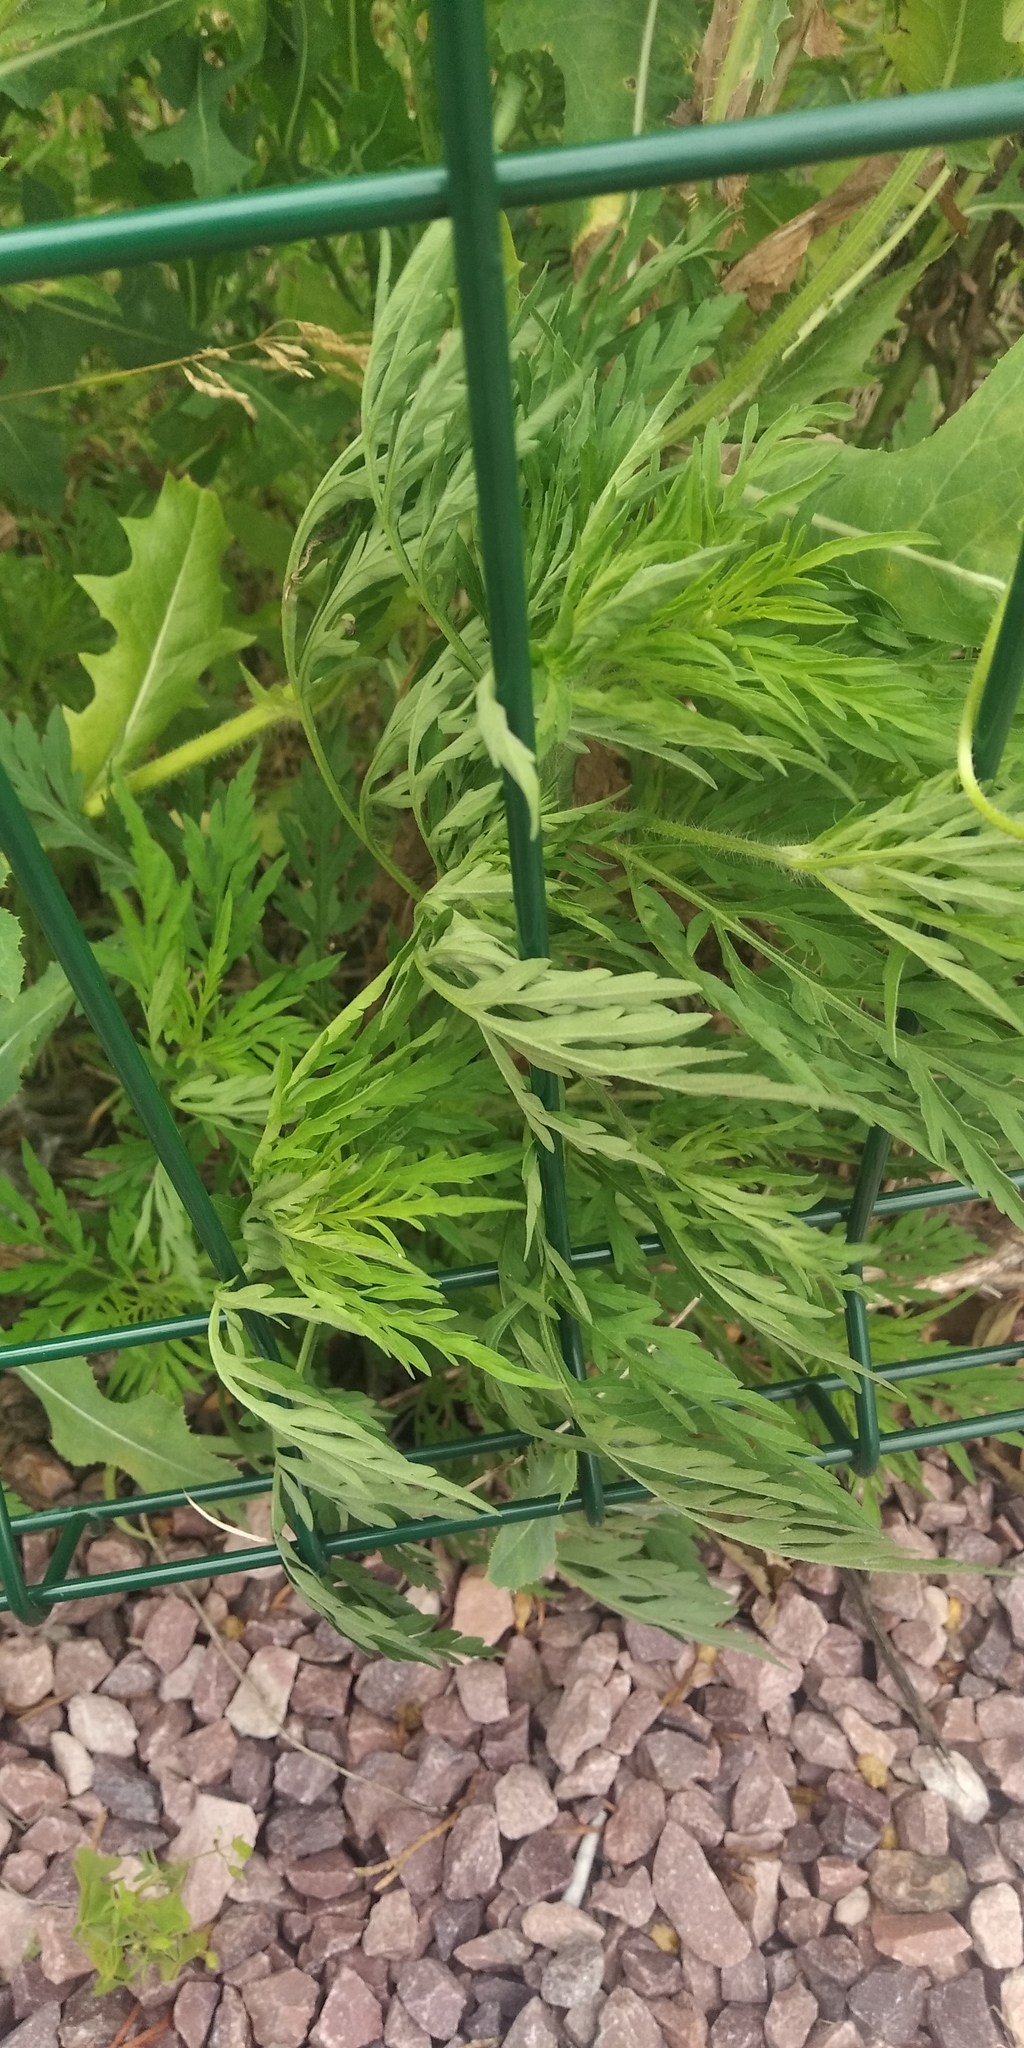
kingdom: Plantae
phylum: Tracheophyta
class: Magnoliopsida
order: Asterales
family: Asteraceae
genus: Ambrosia
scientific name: Ambrosia artemisiifolia
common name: Annual ragweed
